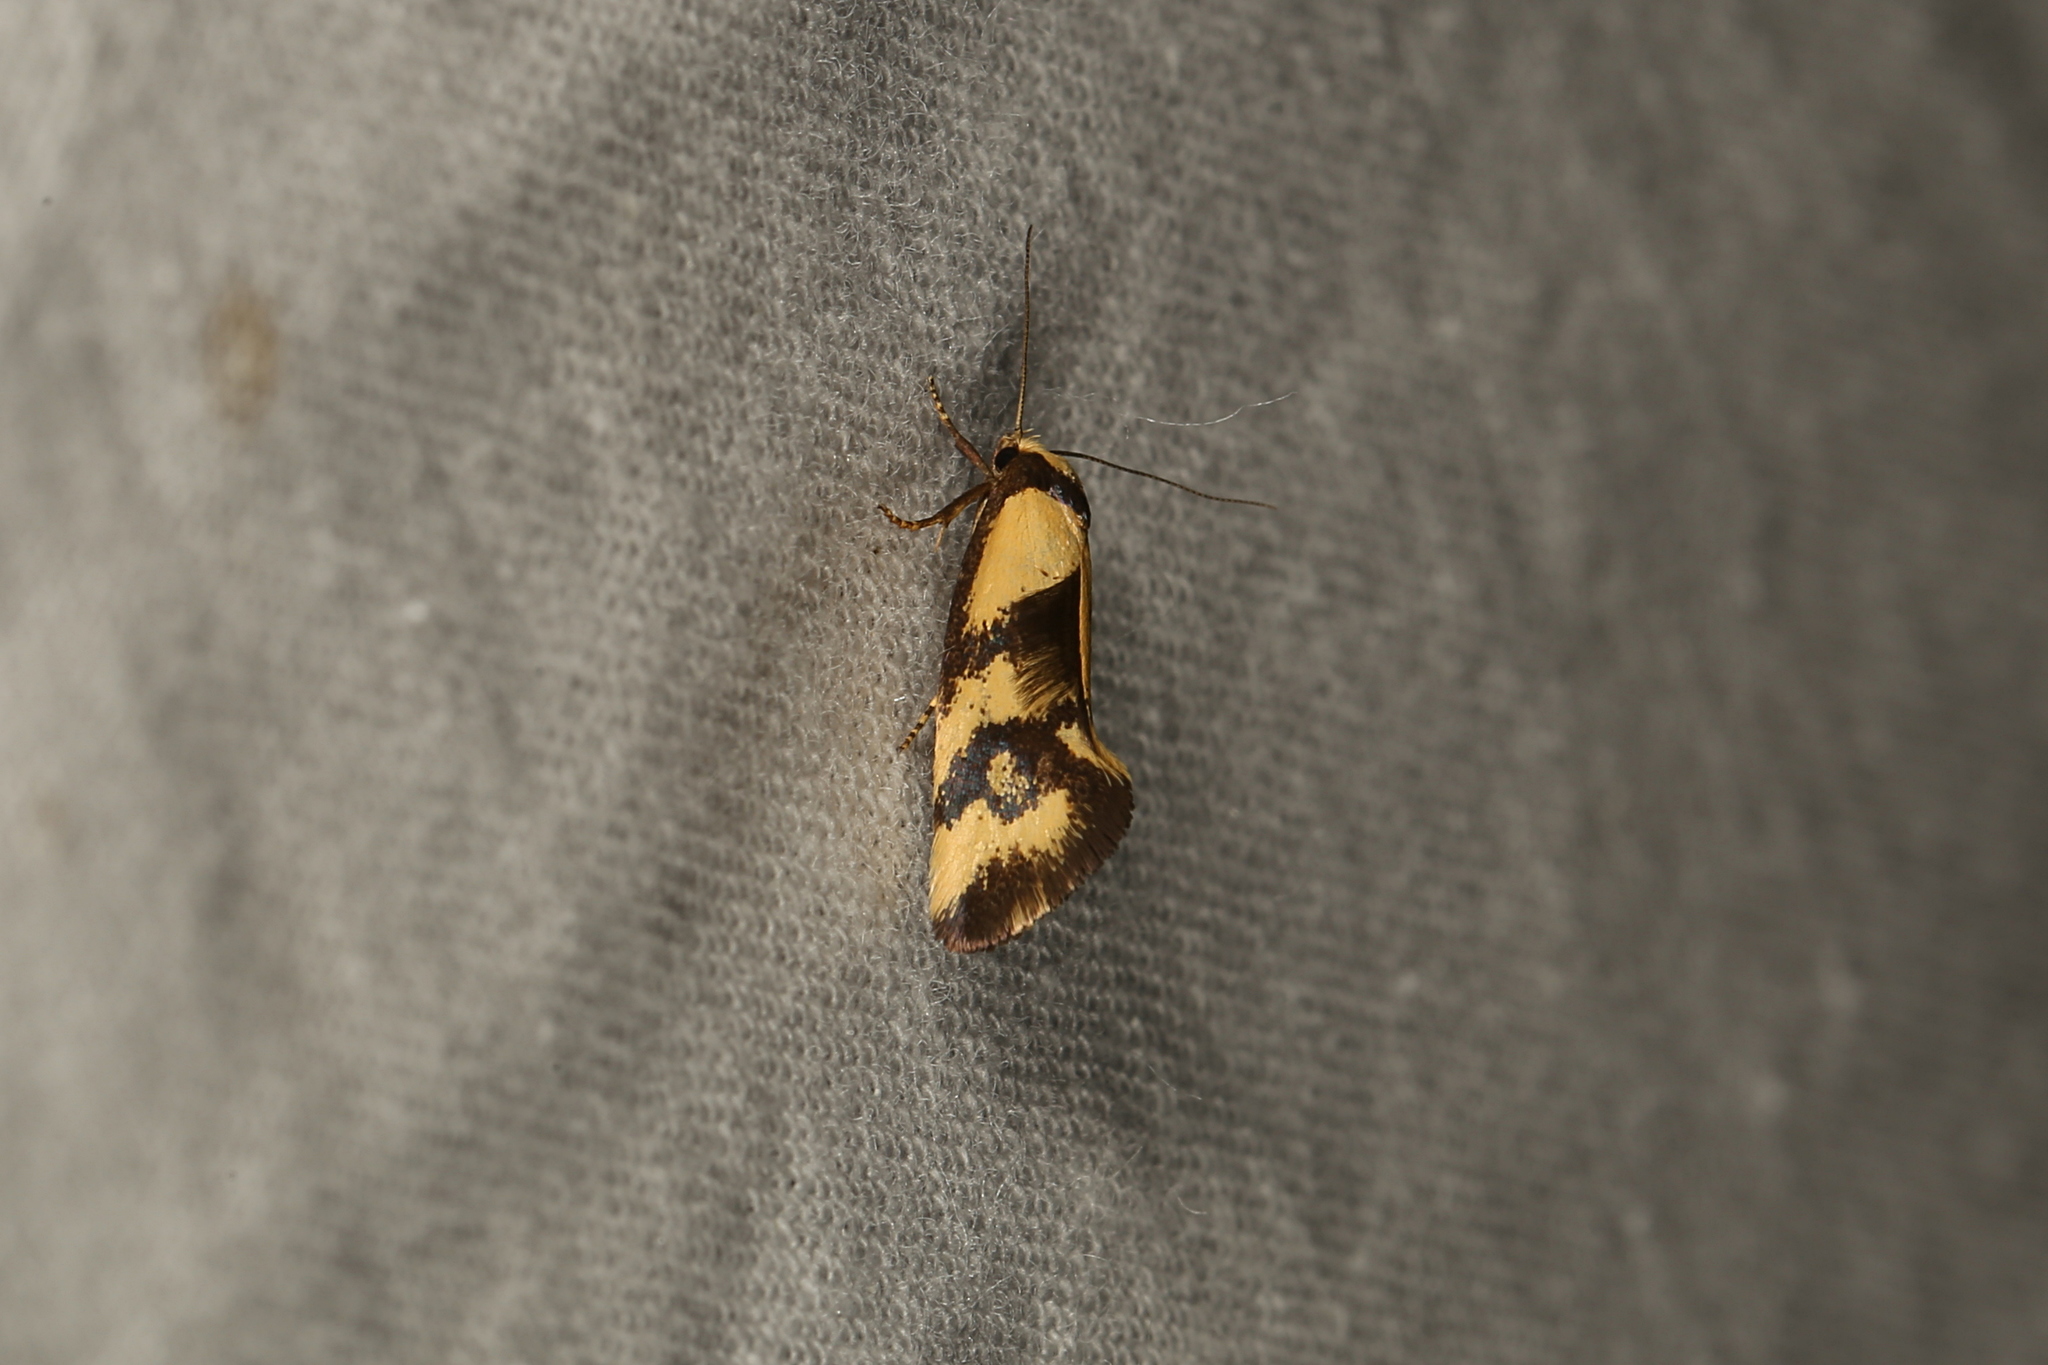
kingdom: Animalia
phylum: Arthropoda
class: Insecta
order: Lepidoptera
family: Oecophoridae
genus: Olbonoma
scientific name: Olbonoma triptycha
